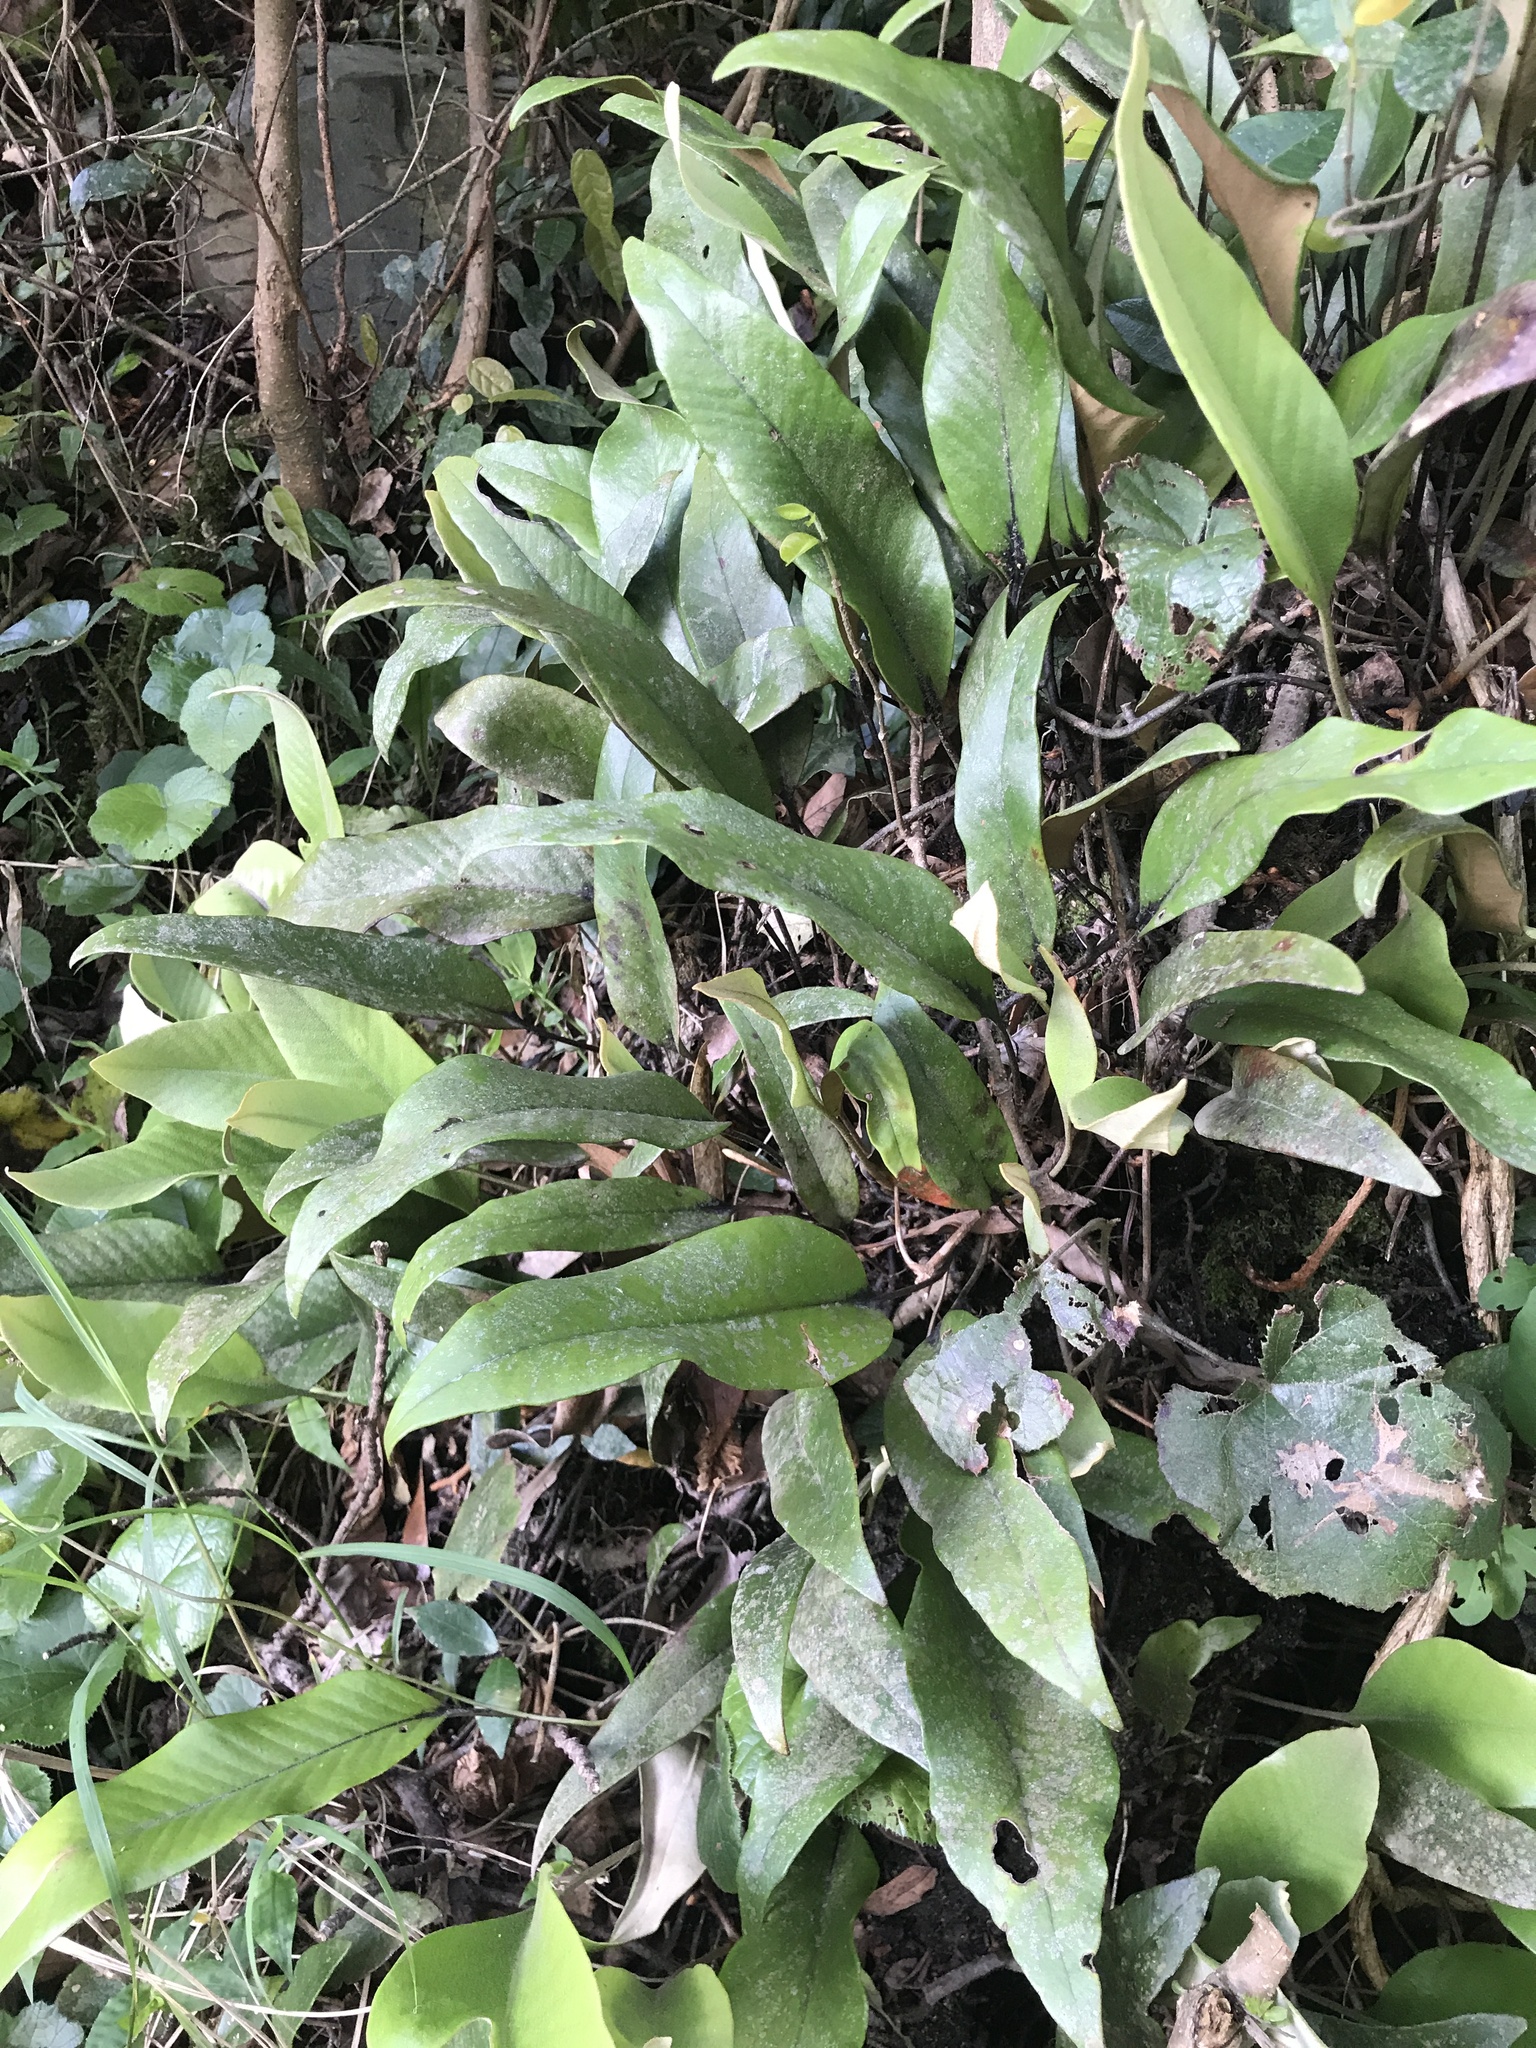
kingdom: Plantae
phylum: Tracheophyta
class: Polypodiopsida
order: Polypodiales
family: Polypodiaceae
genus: Pyrrosia
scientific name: Pyrrosia lingua
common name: Felt fern
